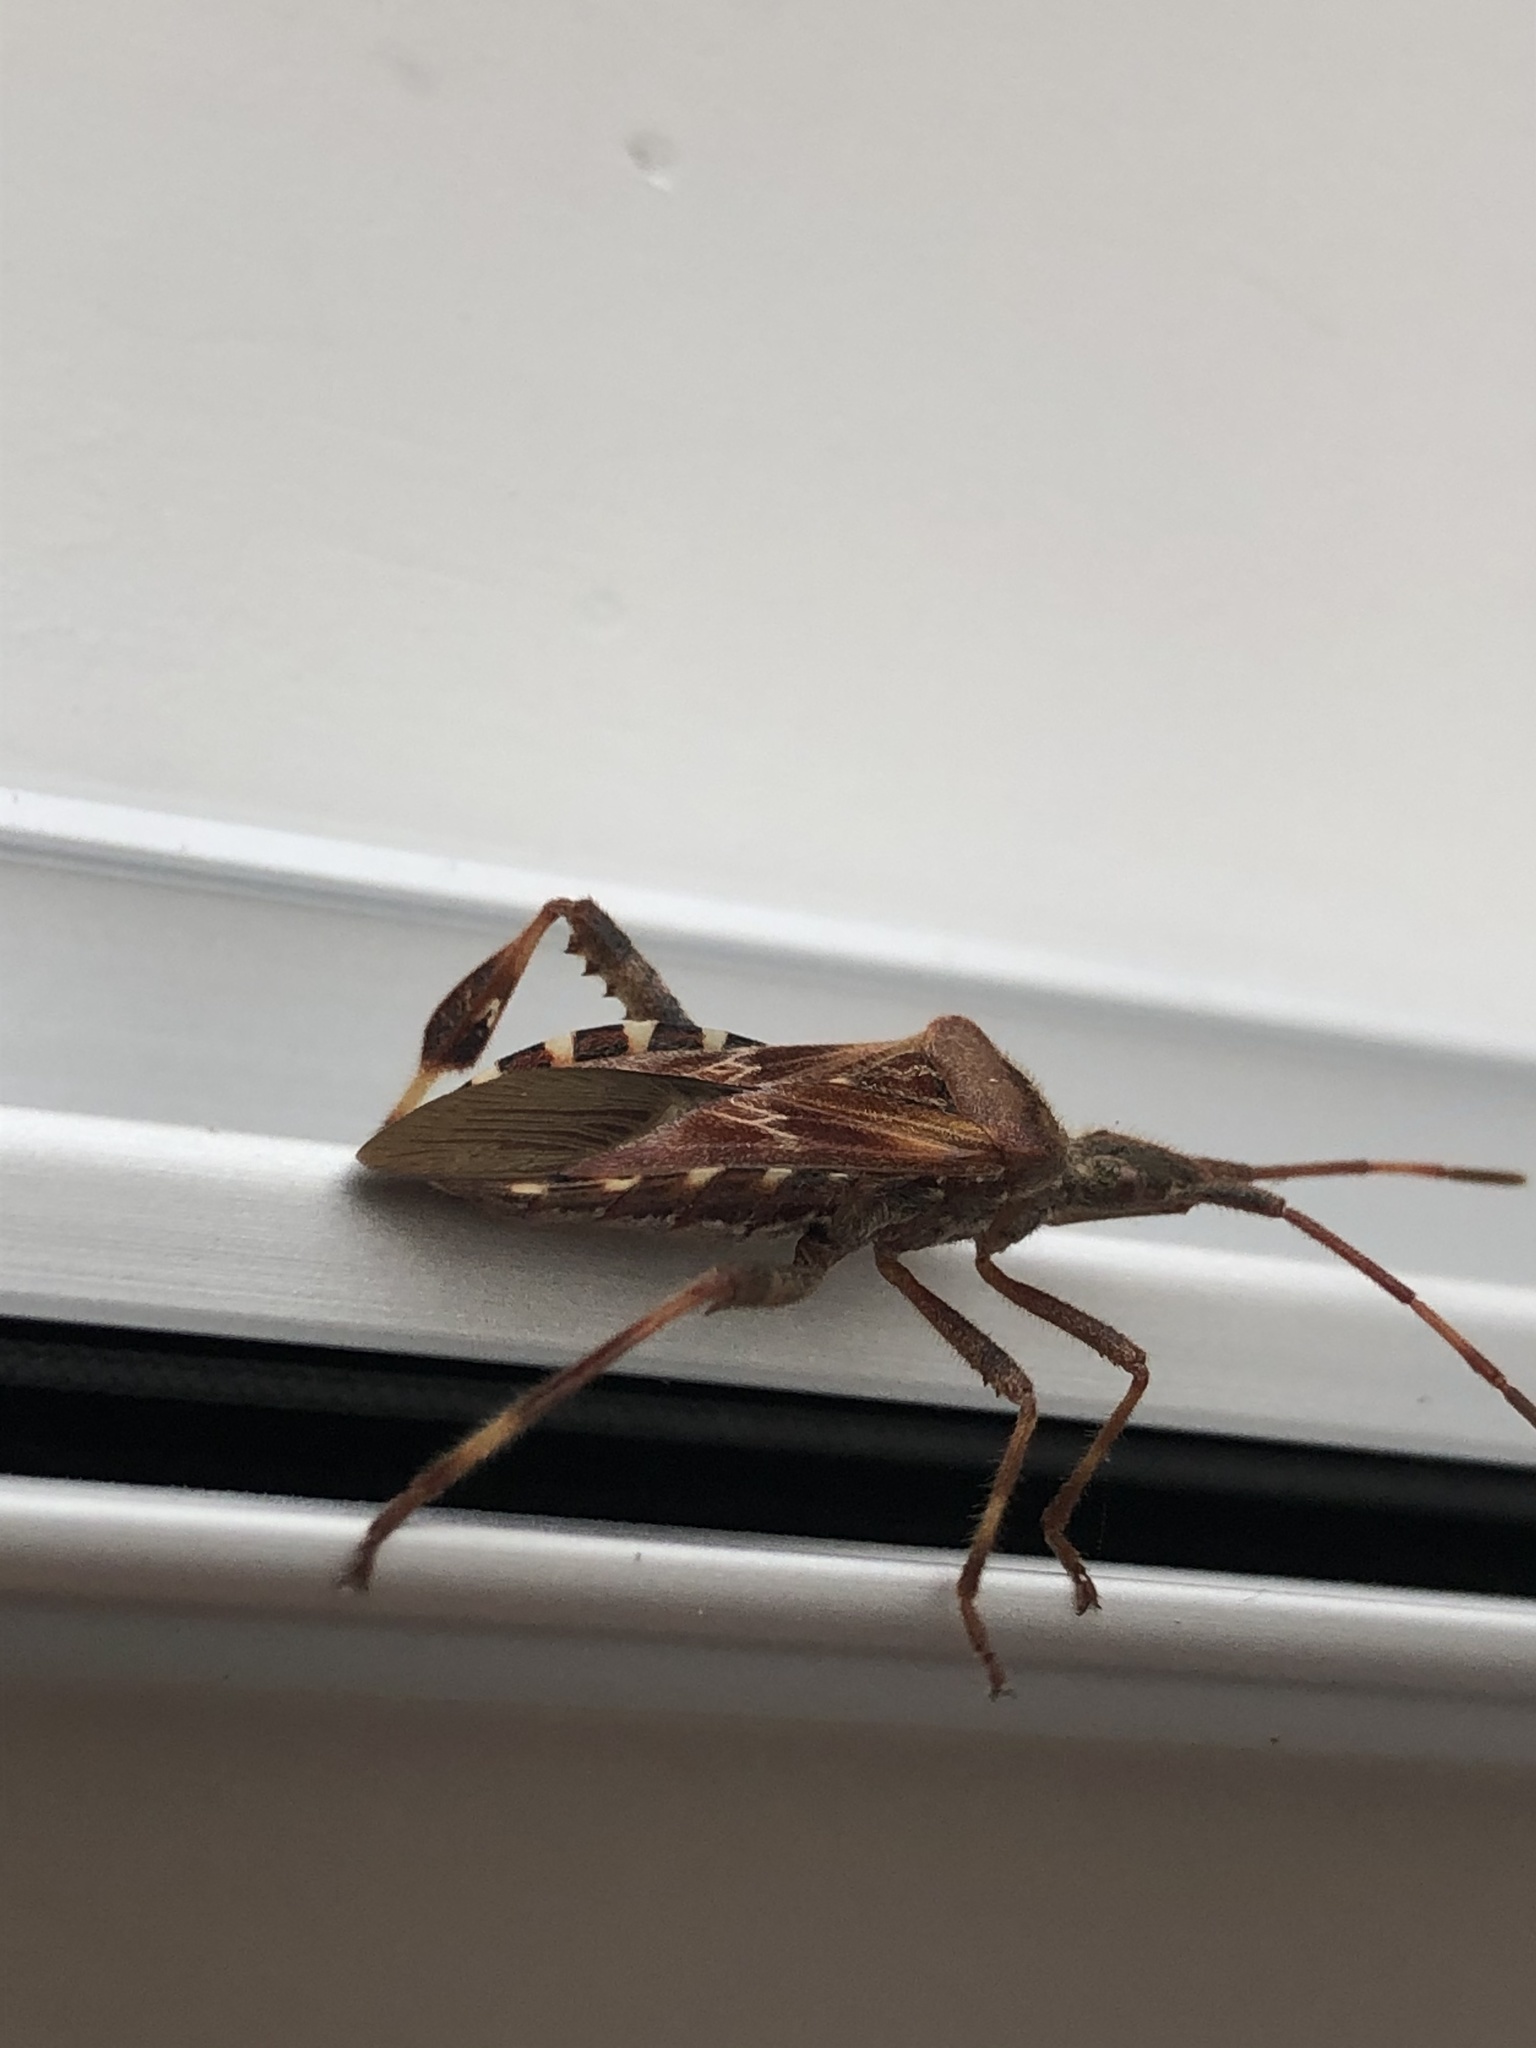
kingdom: Animalia
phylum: Arthropoda
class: Insecta
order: Hemiptera
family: Coreidae
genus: Leptoglossus
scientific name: Leptoglossus occidentalis
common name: Western conifer-seed bug
